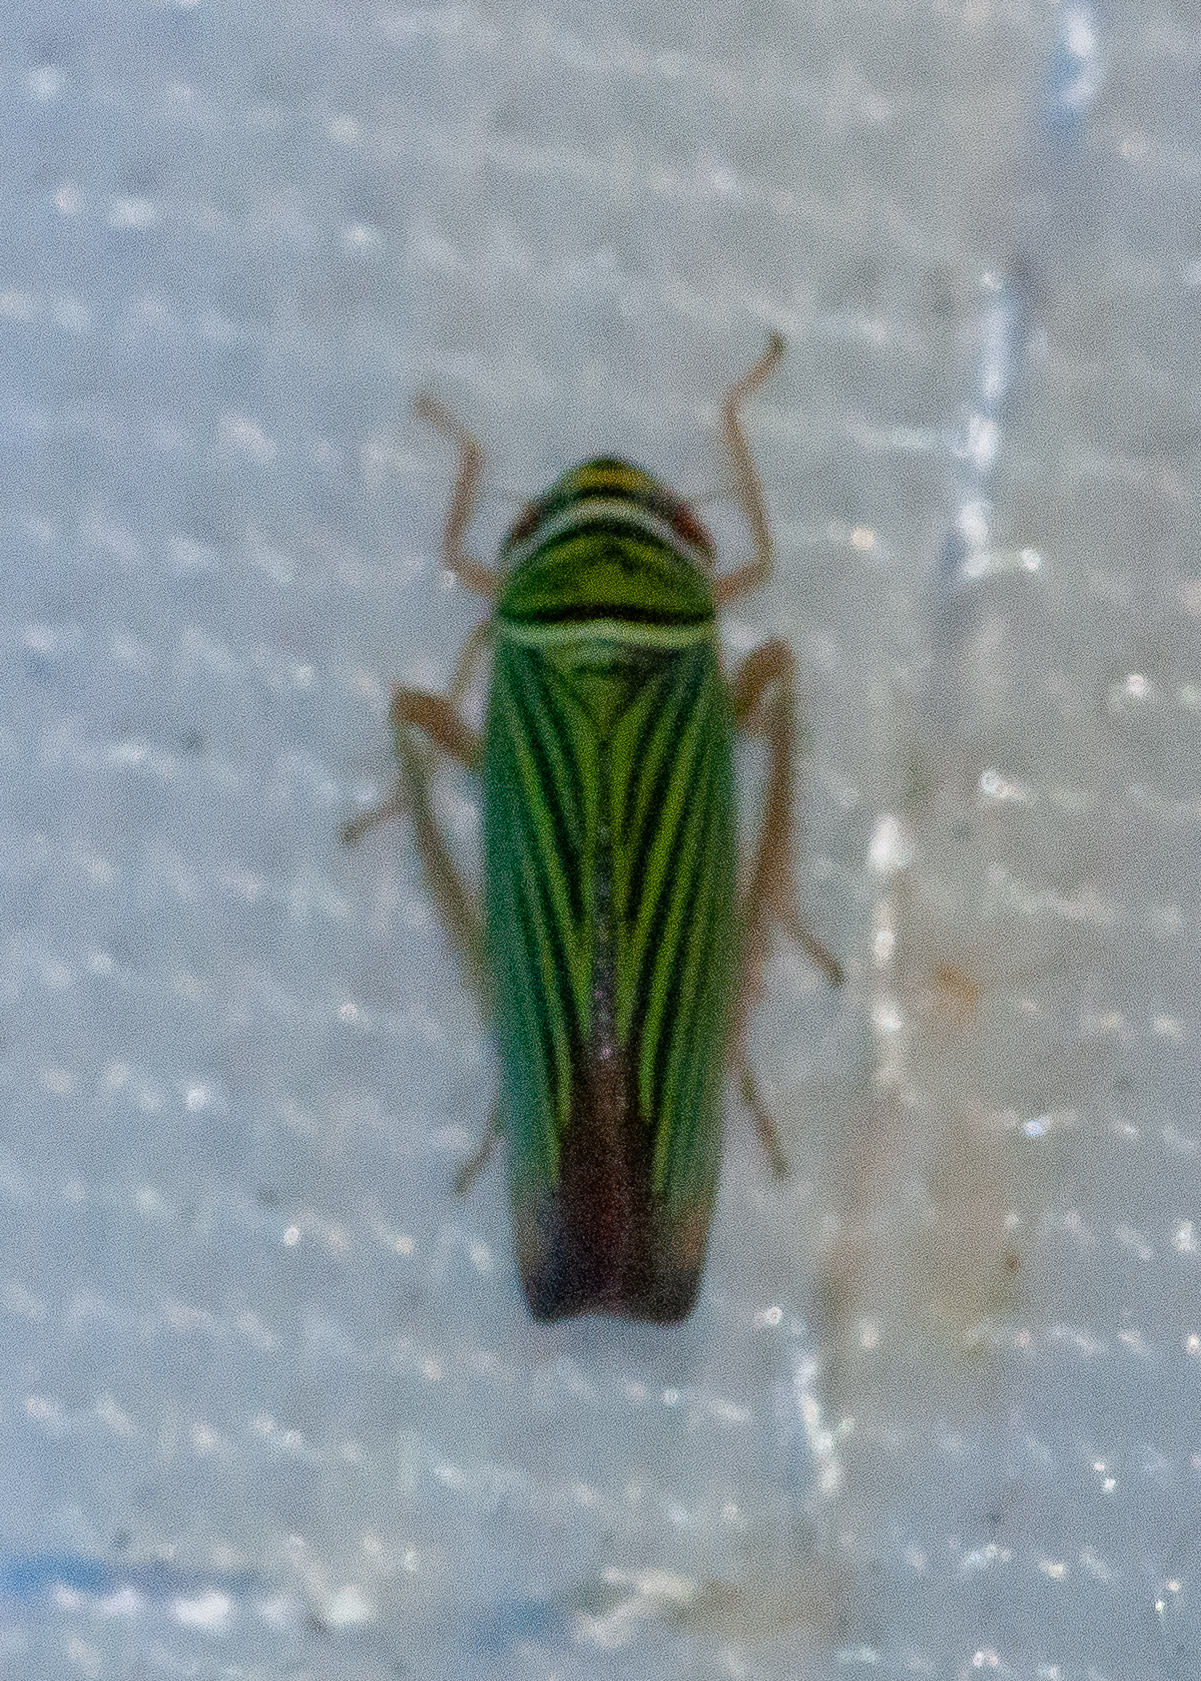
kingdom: Animalia
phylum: Arthropoda
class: Insecta
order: Hemiptera
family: Cicadellidae
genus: Tylozygus
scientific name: Tylozygus bifidus
